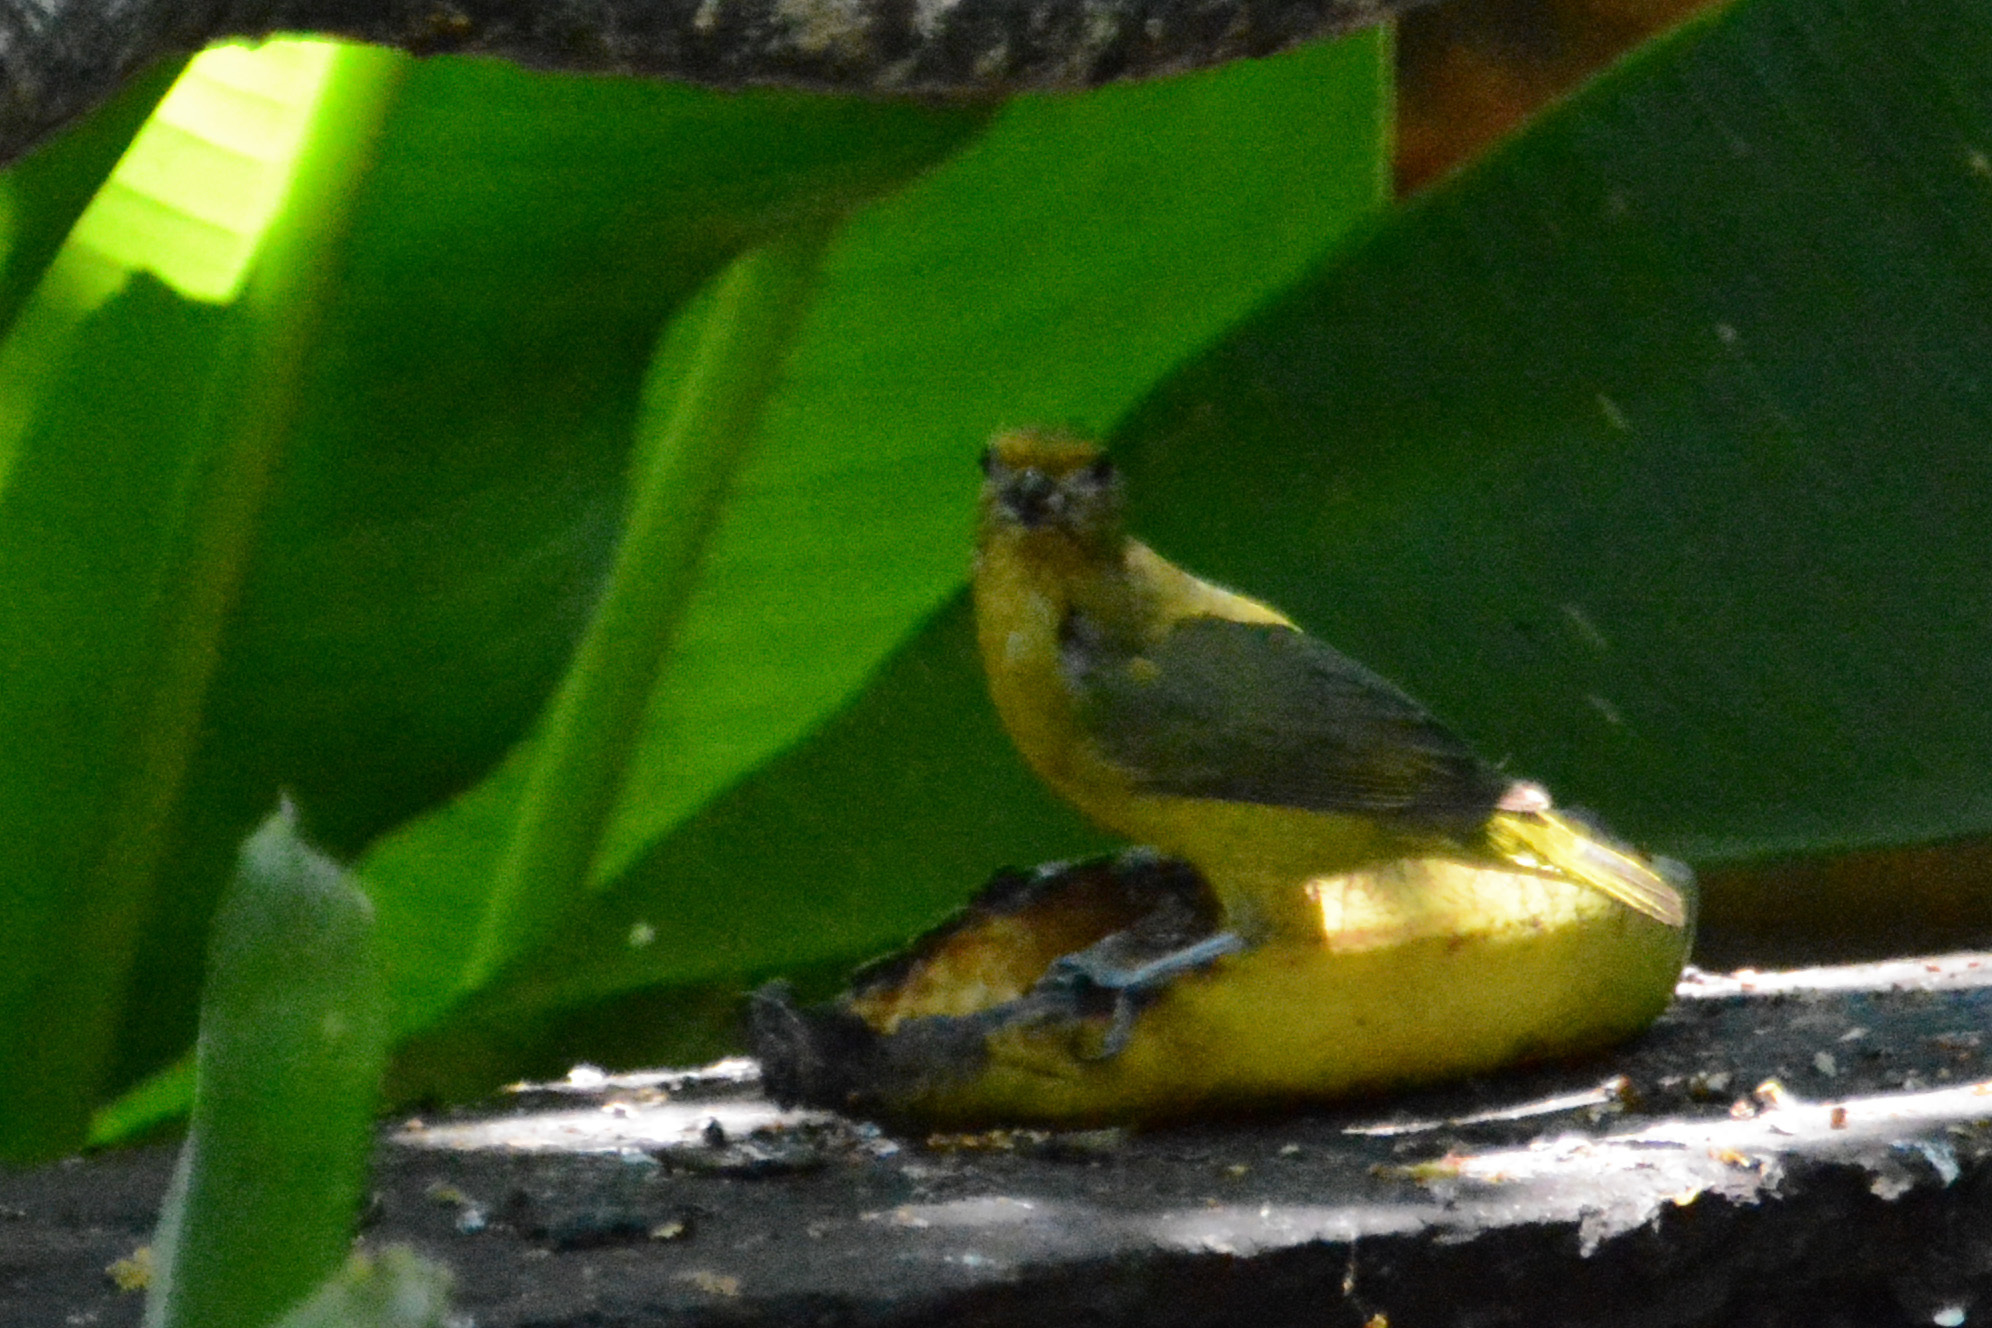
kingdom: Animalia
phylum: Chordata
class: Aves
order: Passeriformes
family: Fringillidae
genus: Euphonia
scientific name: Euphonia violacea
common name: Violaceous euphonia
